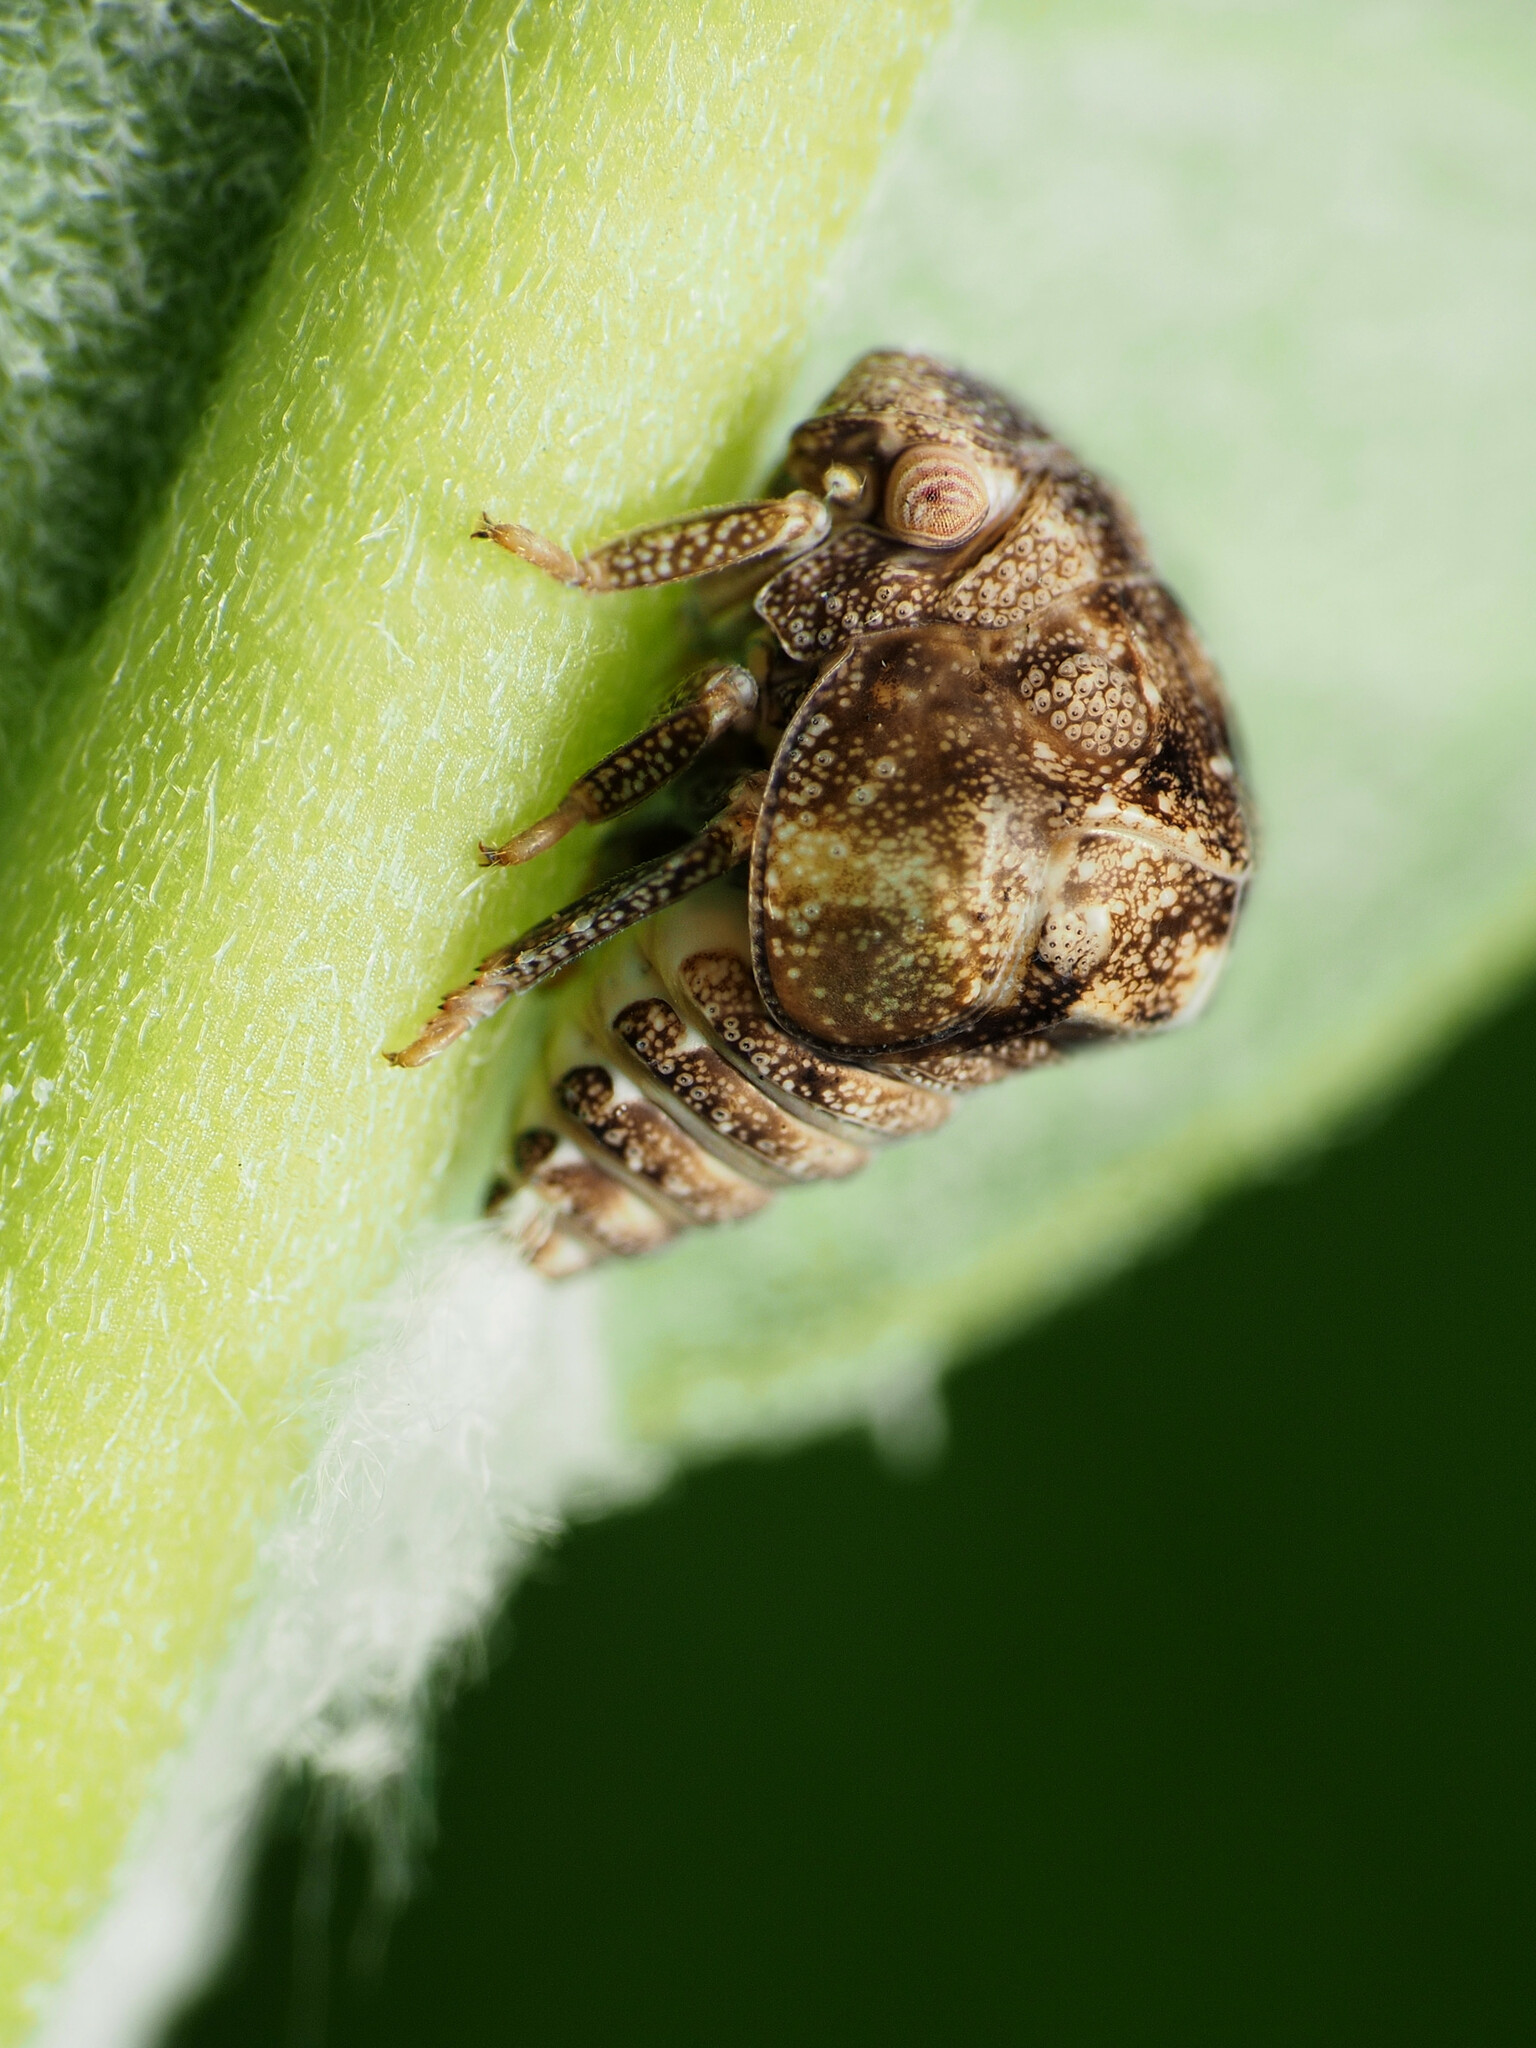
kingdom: Animalia
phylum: Arthropoda
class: Insecta
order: Hemiptera
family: Acanaloniidae
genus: Acanalonia
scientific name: Acanalonia bivittata
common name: Two-striped planthopper
